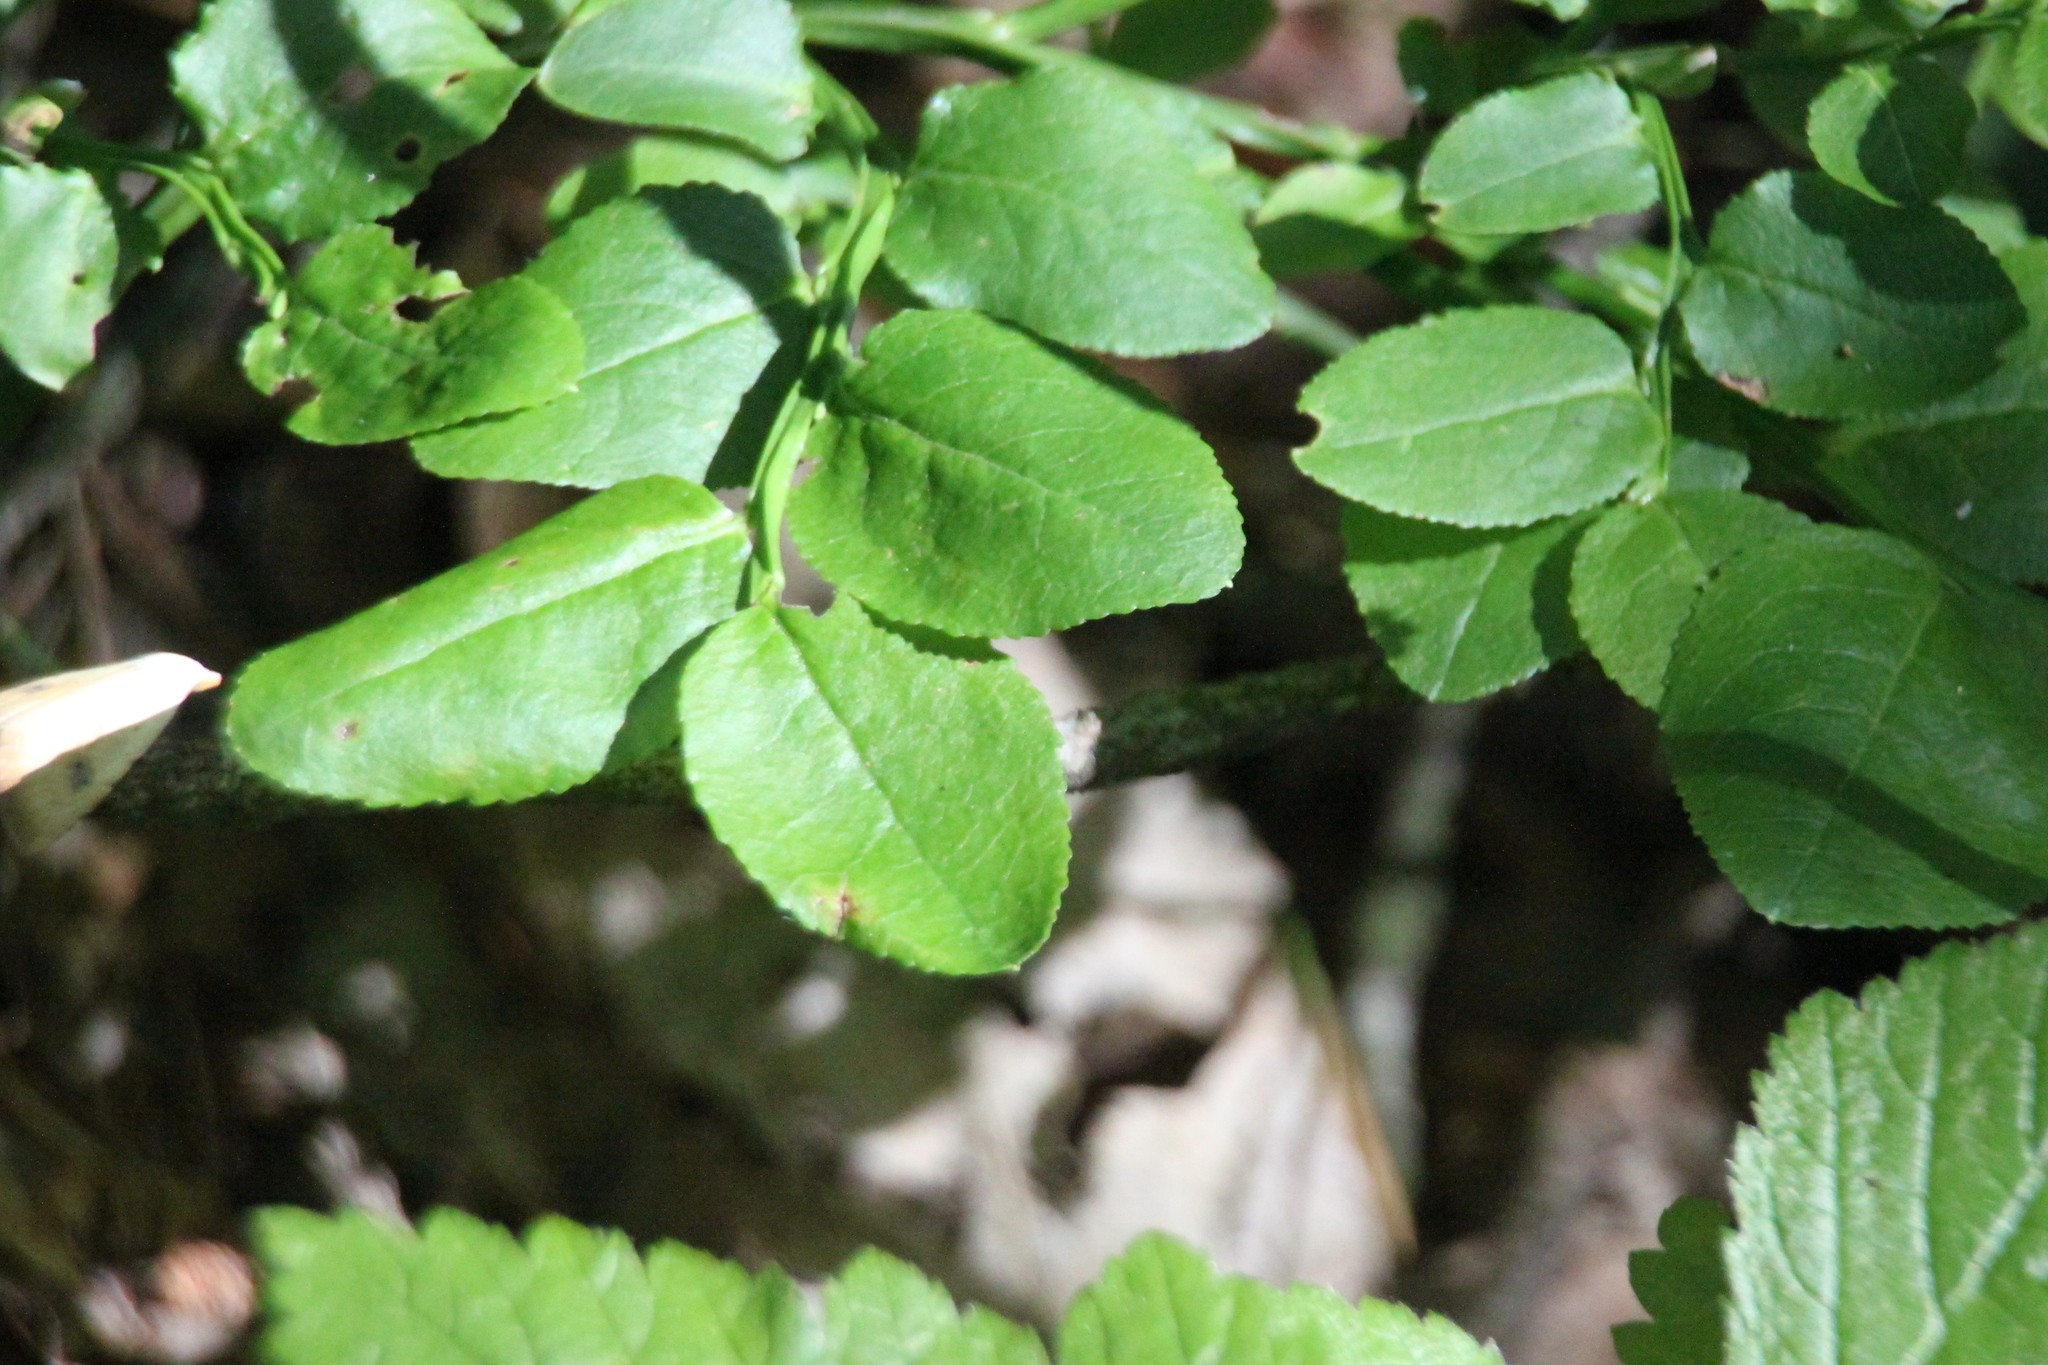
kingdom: Plantae
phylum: Tracheophyta
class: Magnoliopsida
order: Ericales
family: Ericaceae
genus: Vaccinium
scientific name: Vaccinium myrtillus
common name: Bilberry
